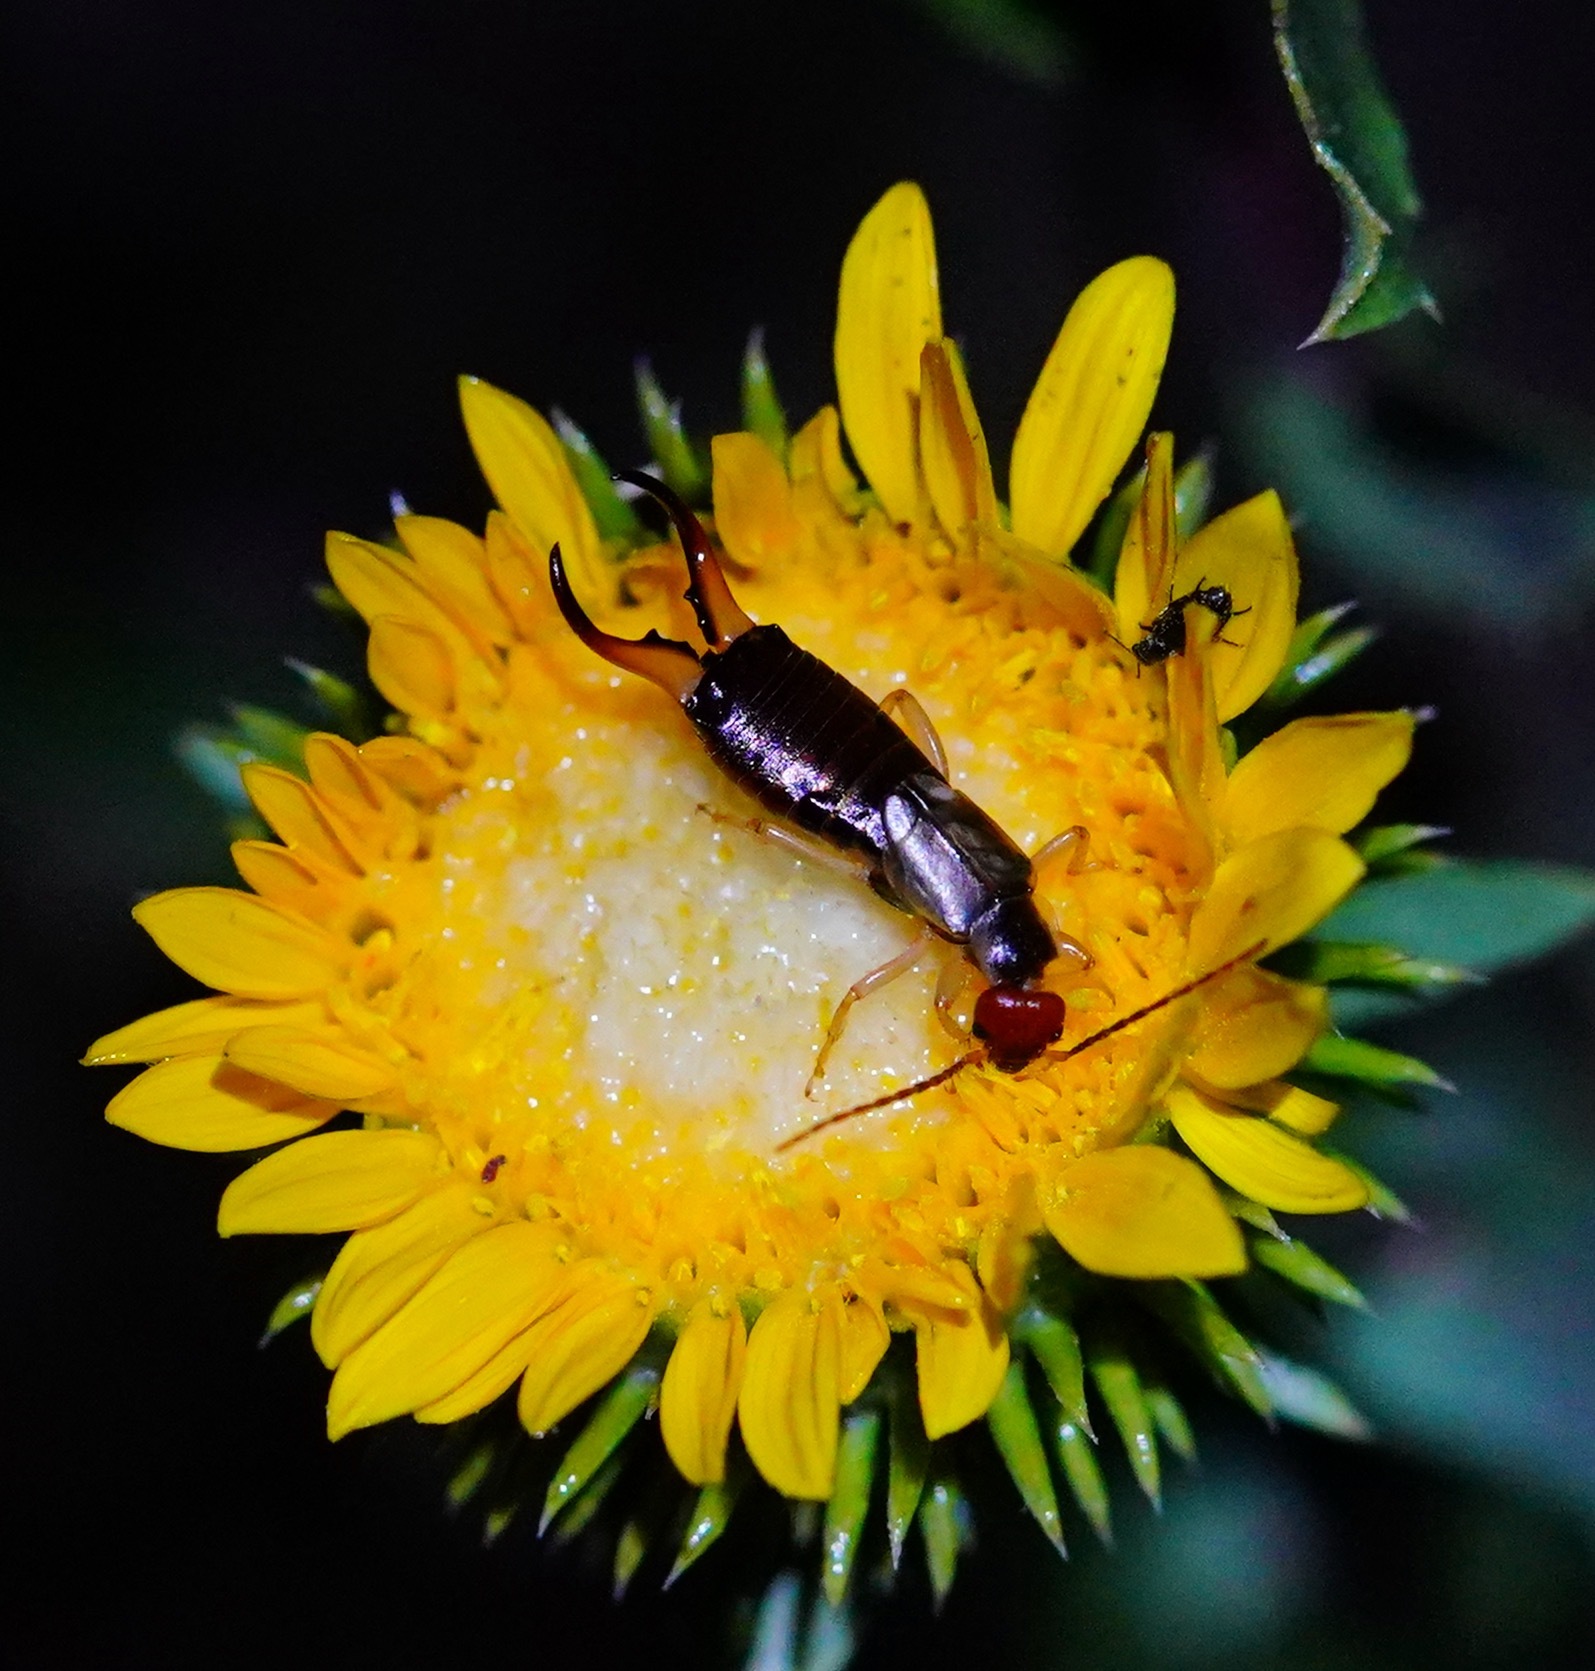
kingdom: Animalia
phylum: Arthropoda
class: Insecta
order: Dermaptera
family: Forficulidae
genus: Forficula
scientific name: Forficula
